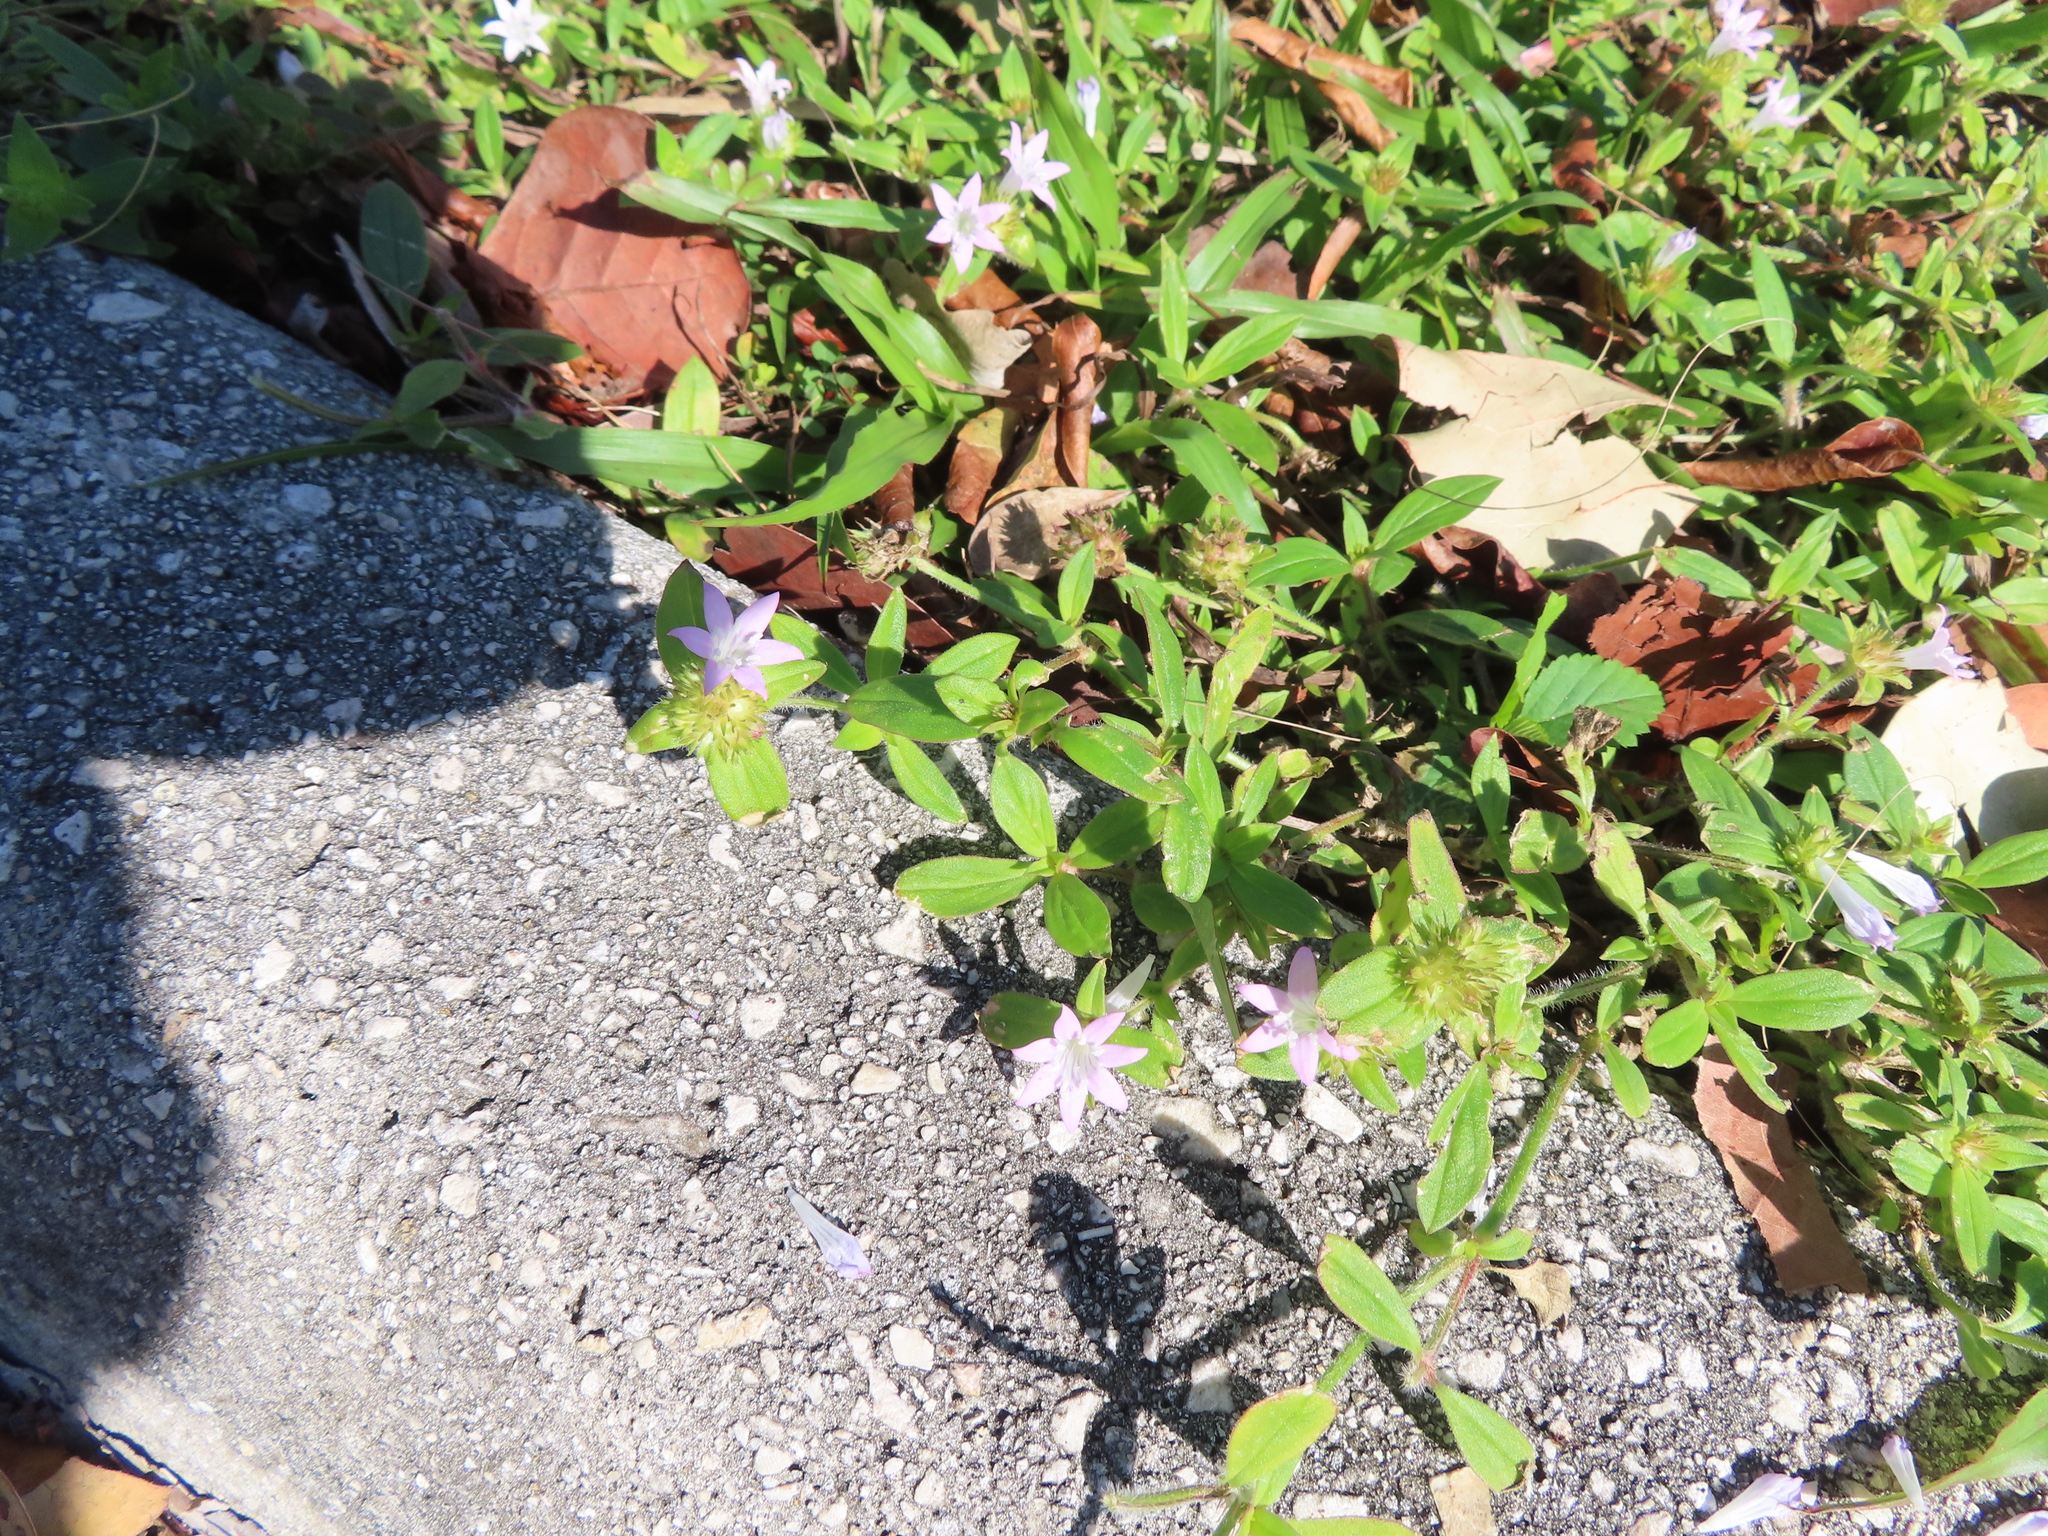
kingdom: Plantae
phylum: Tracheophyta
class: Magnoliopsida
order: Gentianales
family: Rubiaceae
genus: Richardia
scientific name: Richardia grandiflora
